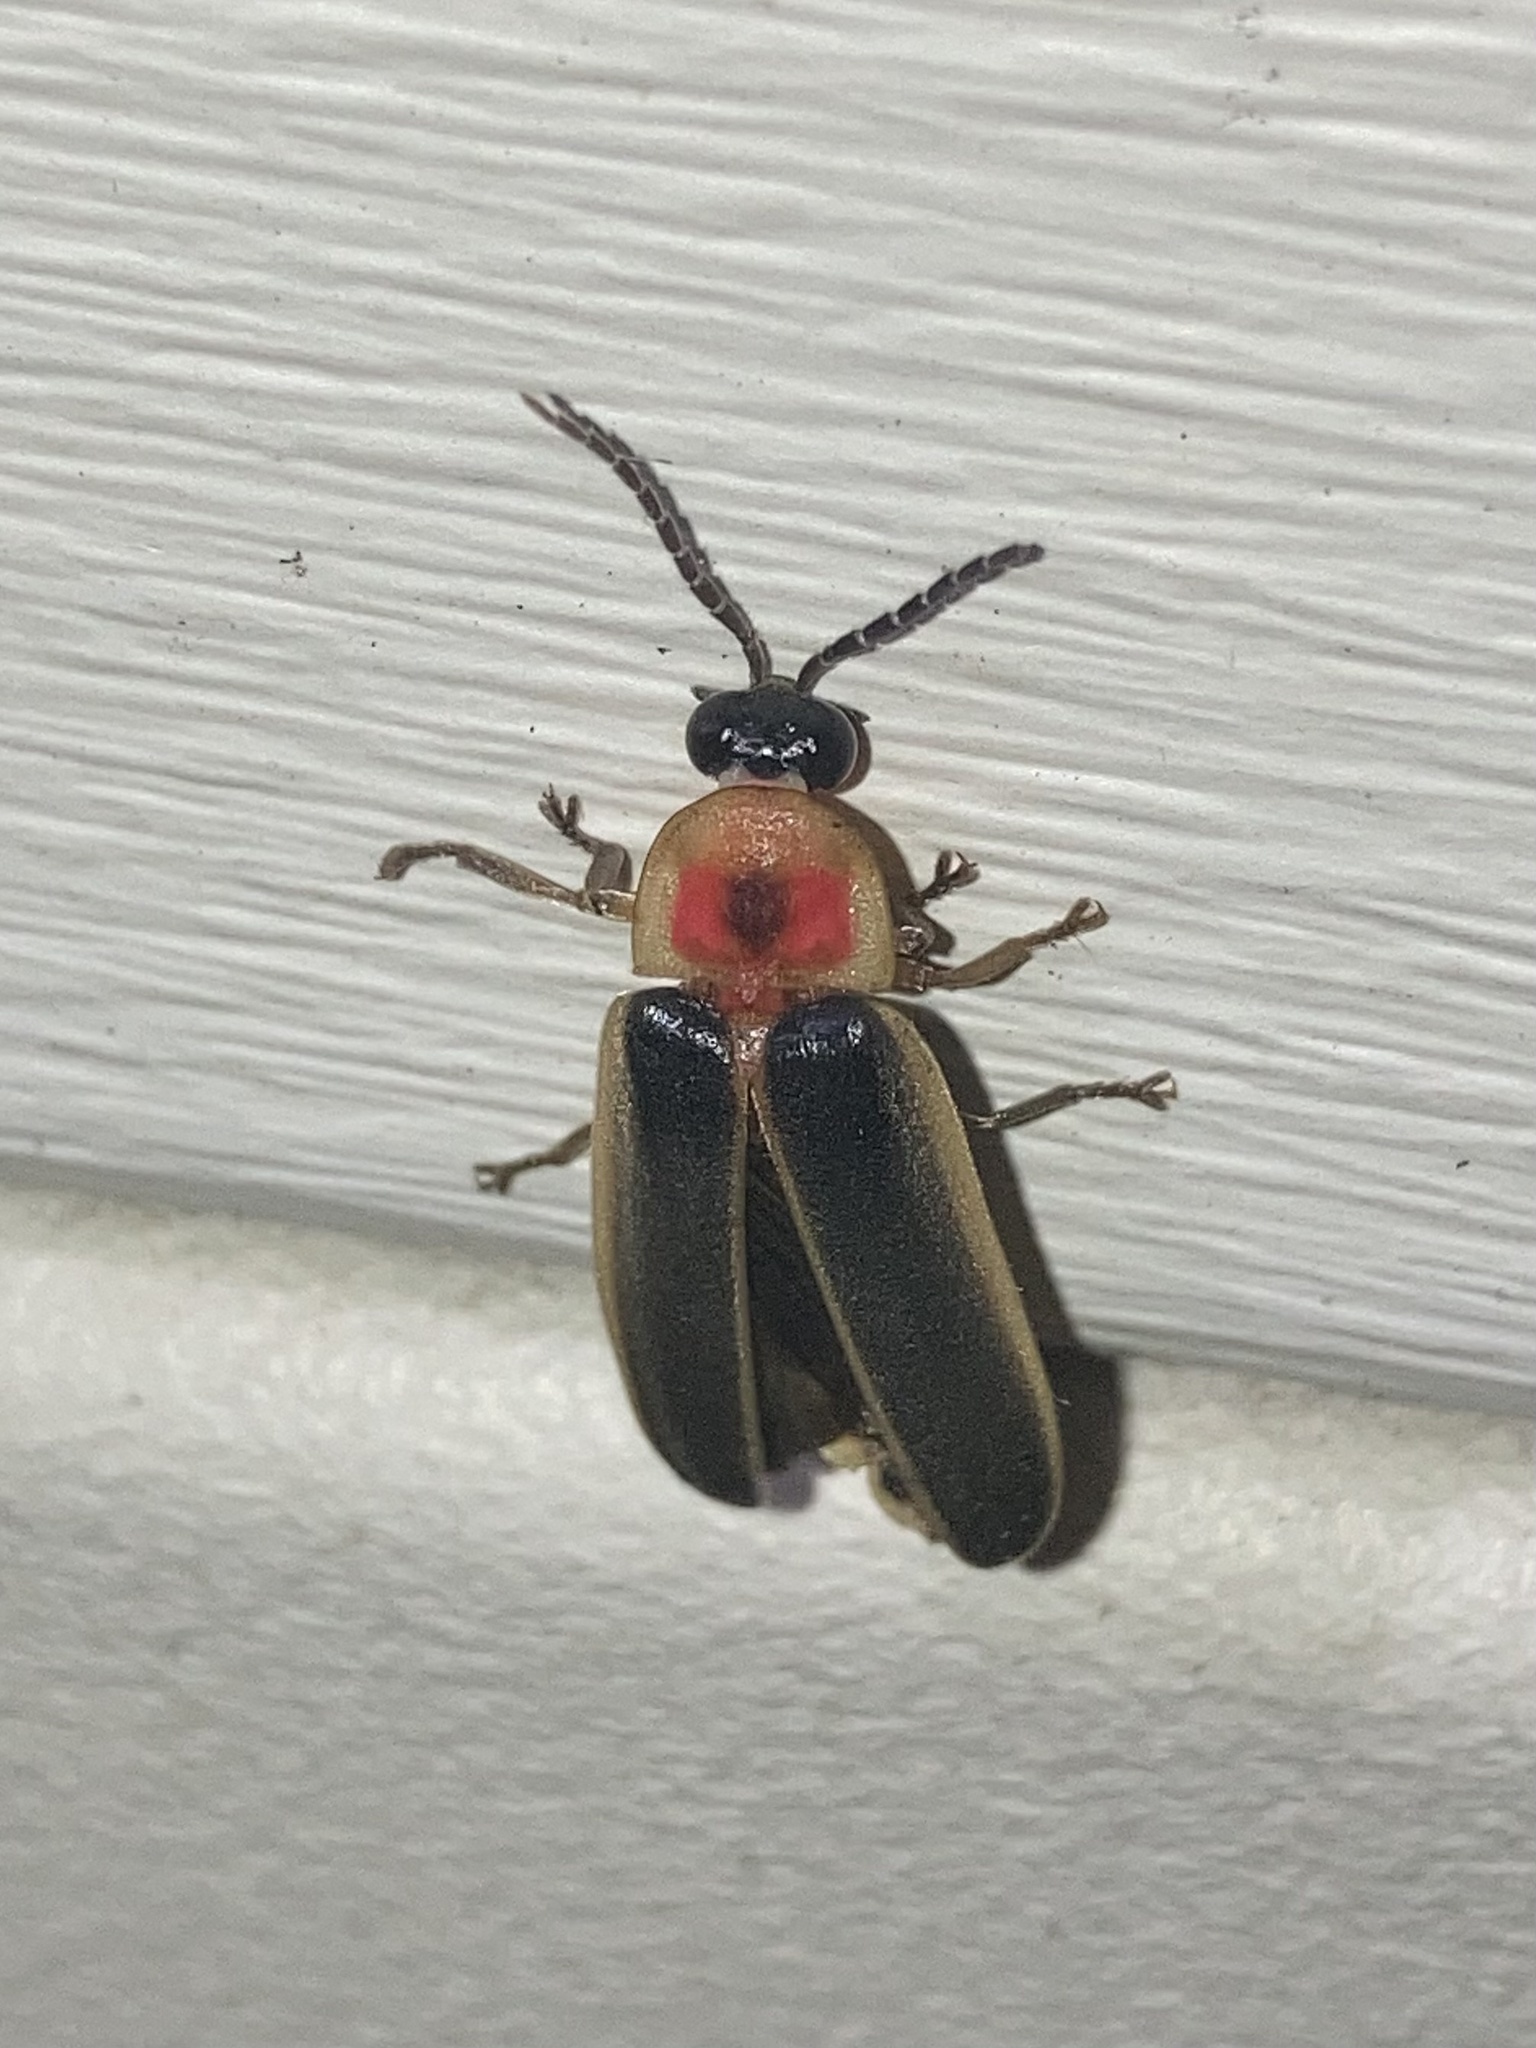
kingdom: Animalia
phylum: Arthropoda
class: Insecta
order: Coleoptera
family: Lampyridae
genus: Photinus
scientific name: Photinus pyralis
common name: Big dipper firefly
